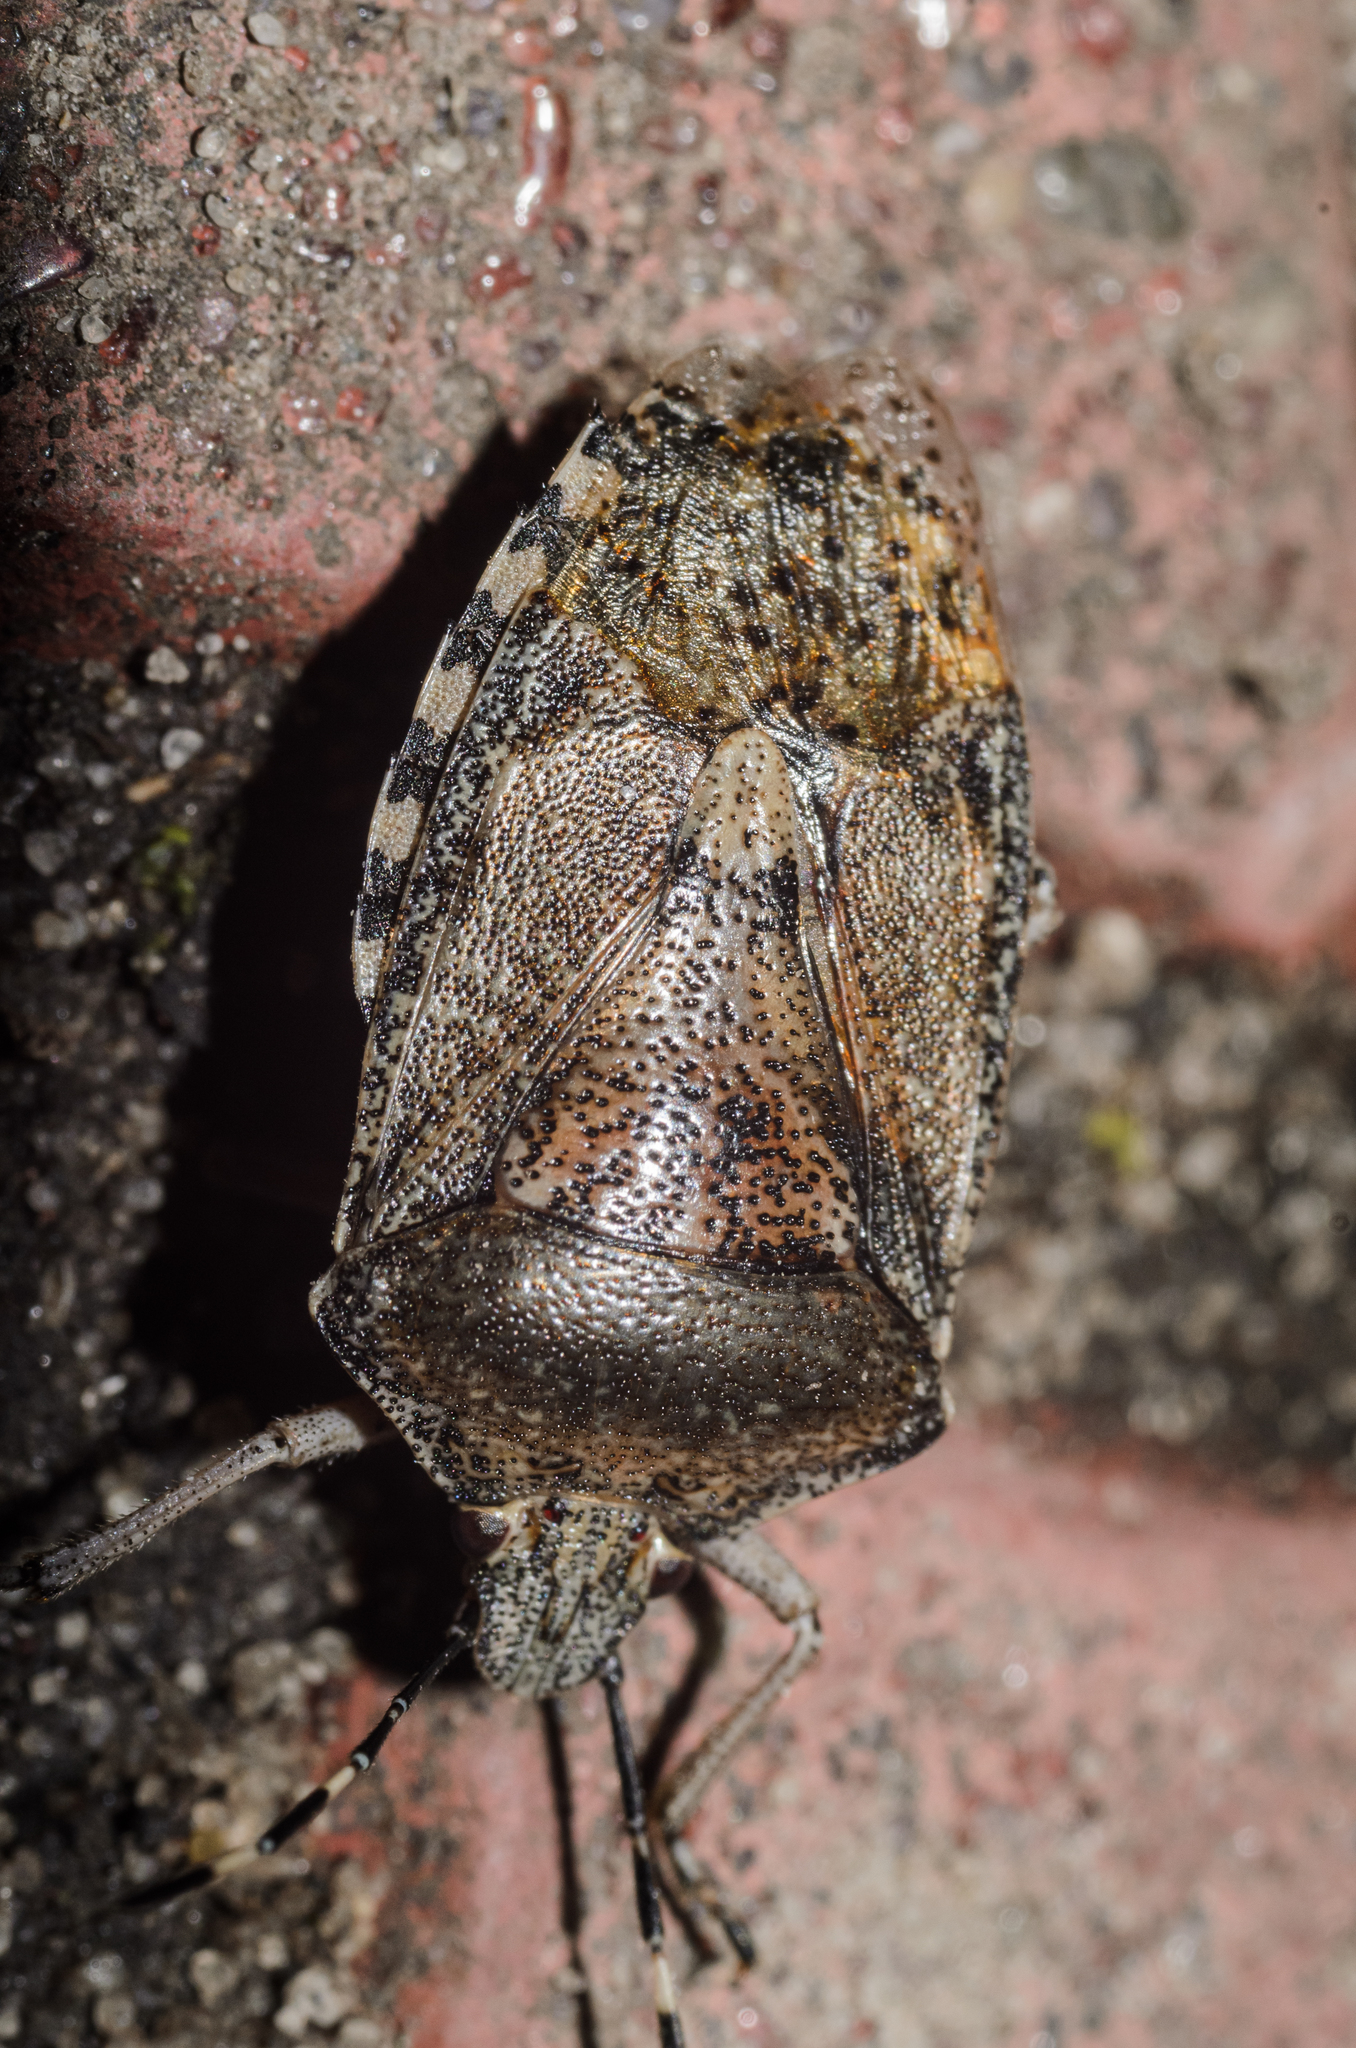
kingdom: Animalia
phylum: Arthropoda
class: Insecta
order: Hemiptera
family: Pentatomidae
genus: Rhaphigaster
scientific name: Rhaphigaster nebulosa
